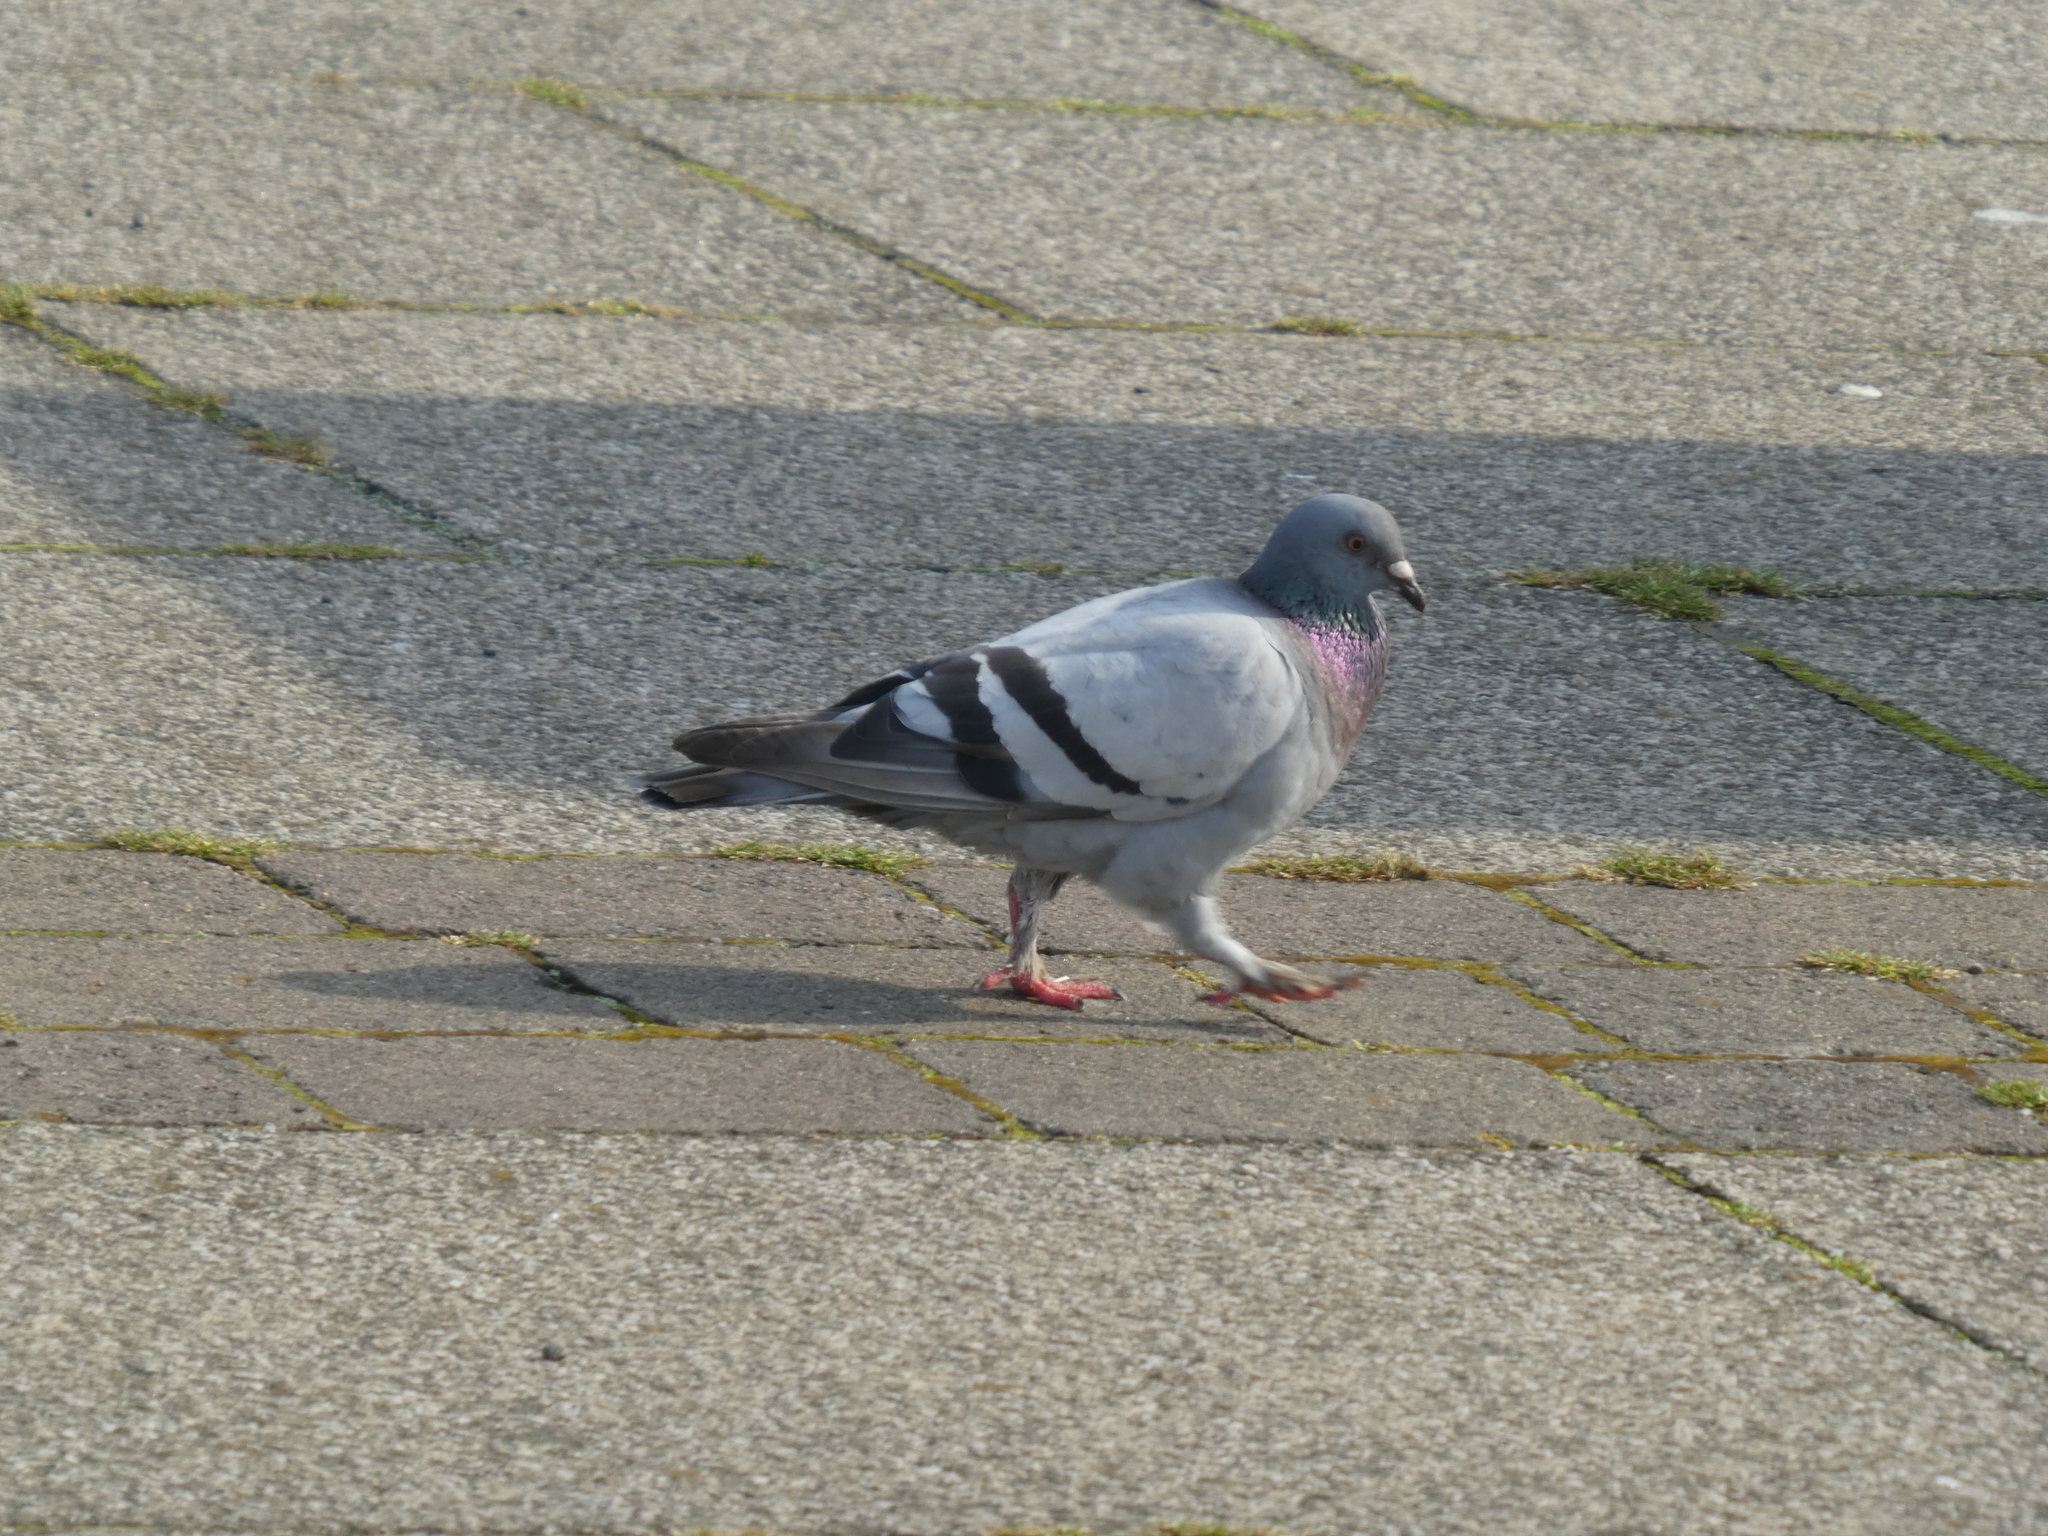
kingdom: Animalia
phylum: Chordata
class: Aves
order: Columbiformes
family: Columbidae
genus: Columba
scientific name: Columba livia
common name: Rock pigeon
